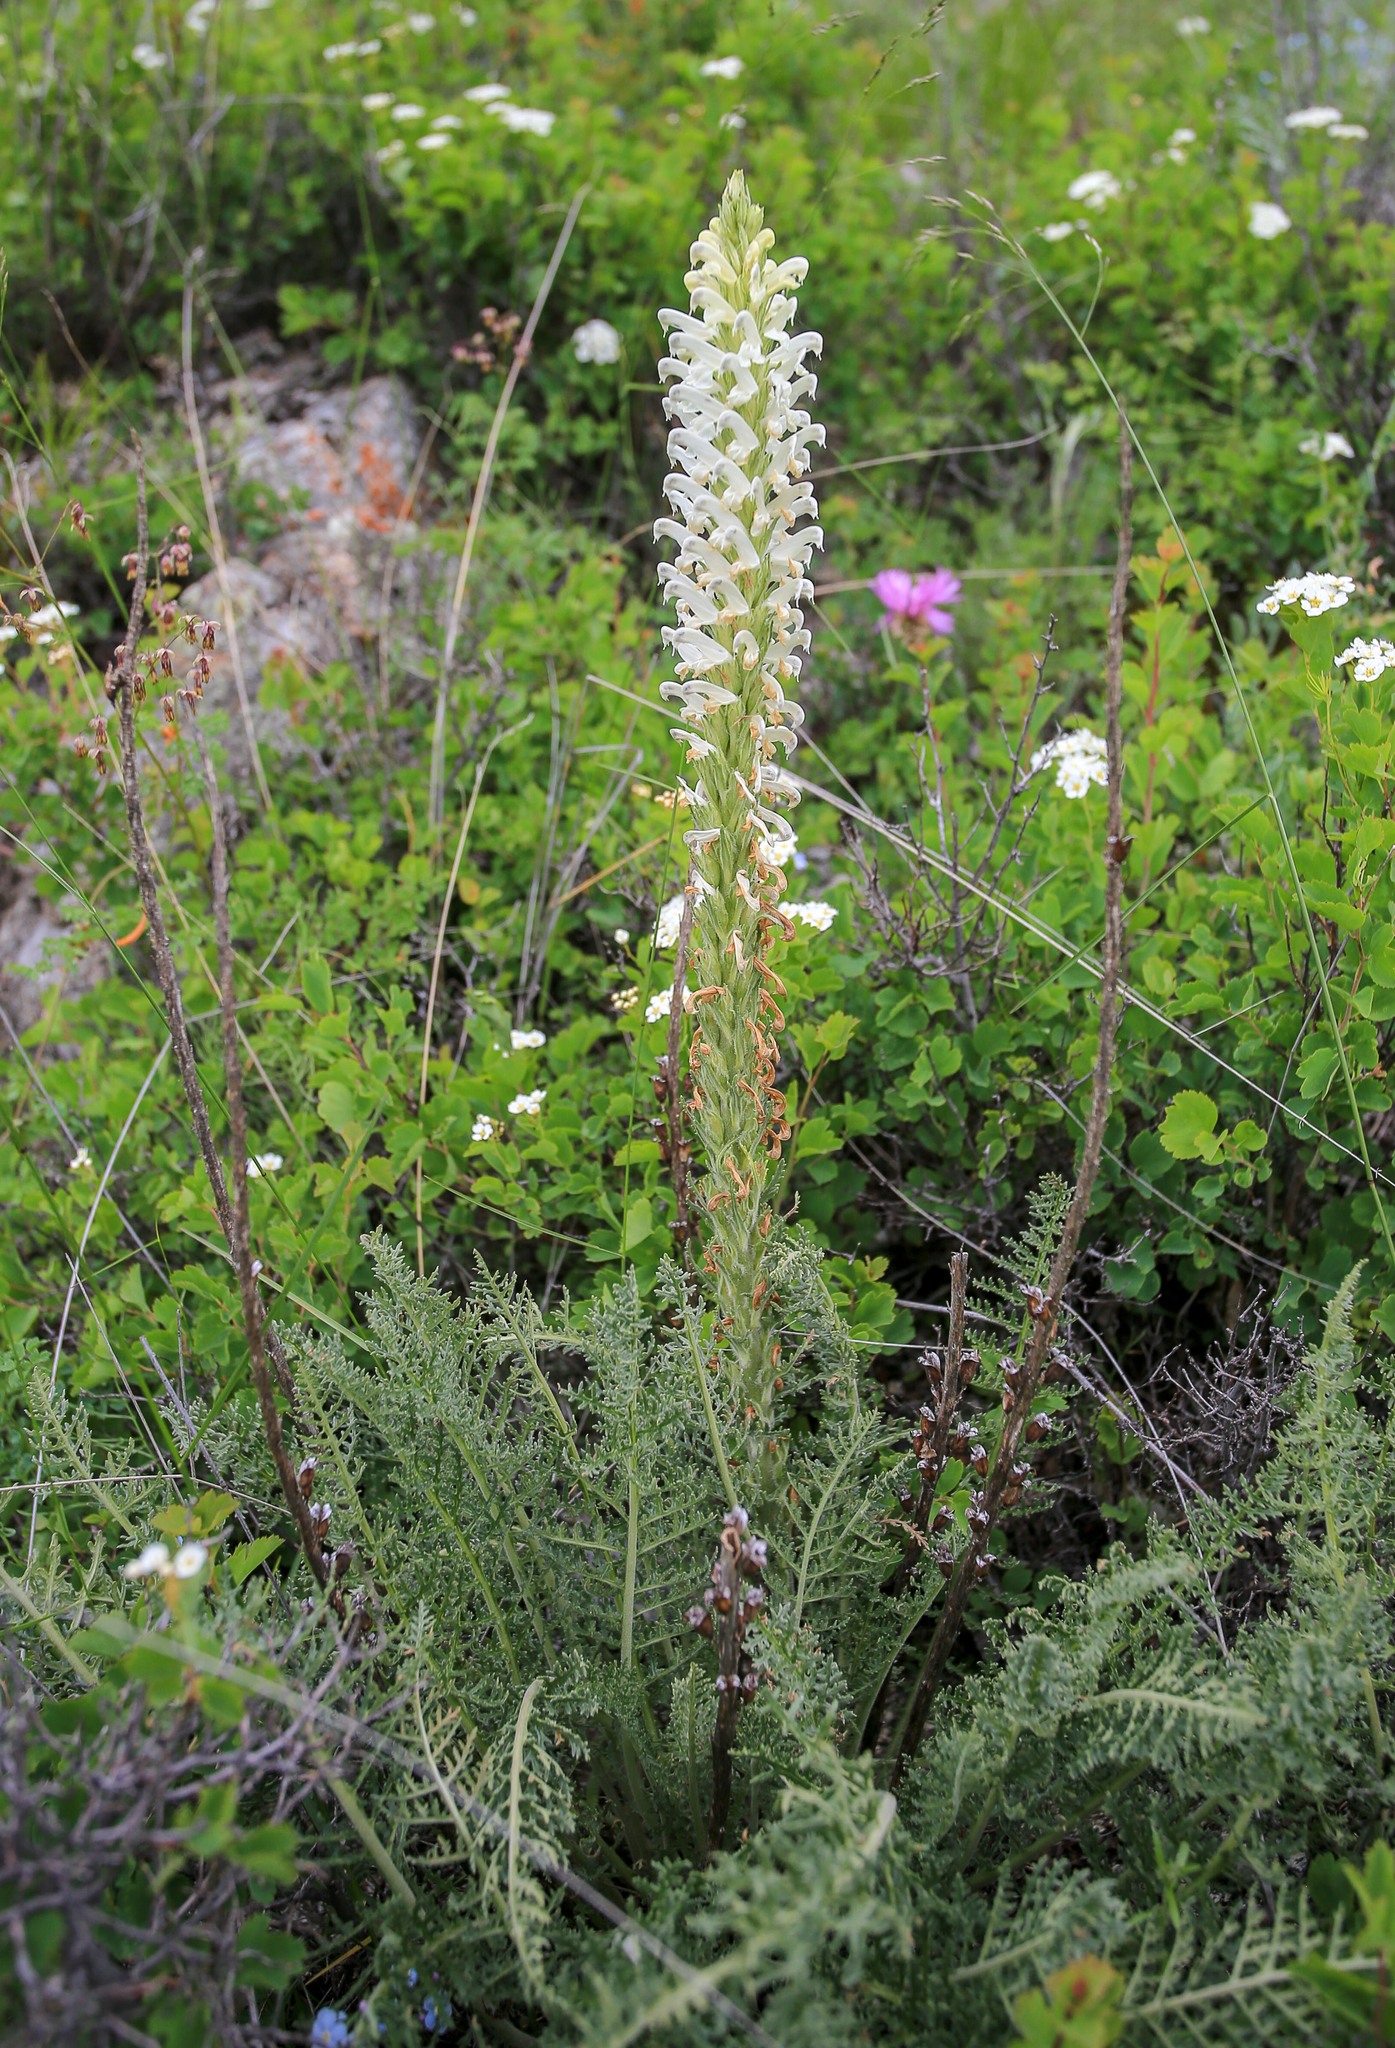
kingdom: Plantae
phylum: Tracheophyta
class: Magnoliopsida
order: Lamiales
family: Orobanchaceae
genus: Pedicularis
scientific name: Pedicularis achilleifolia
